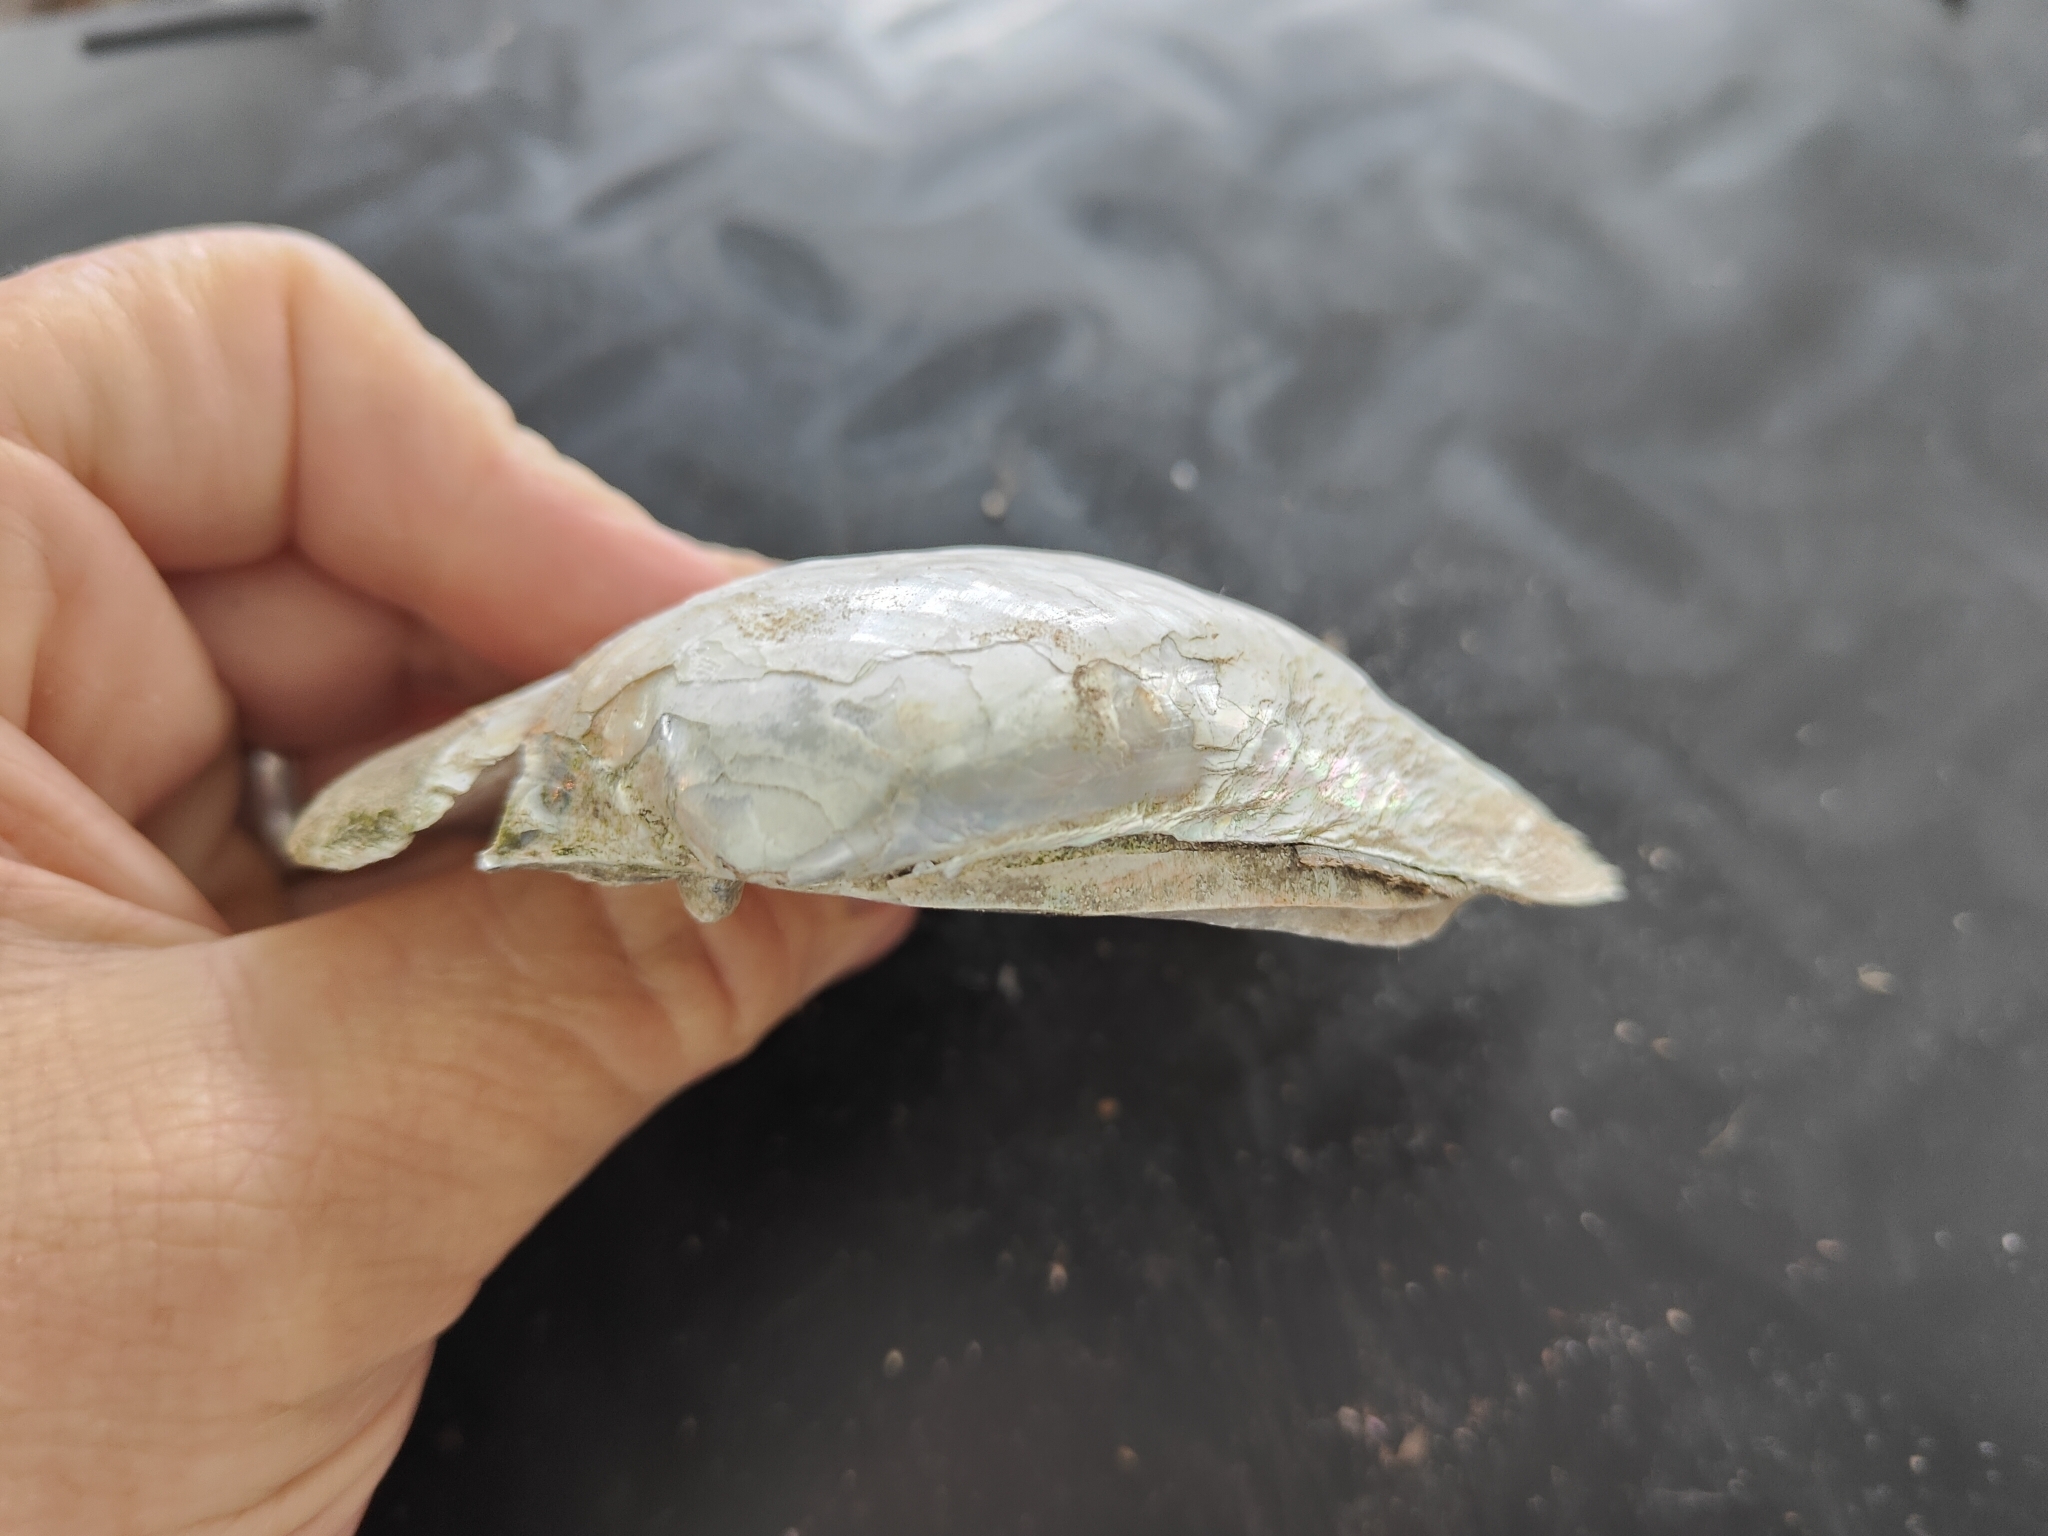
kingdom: Animalia
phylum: Mollusca
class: Bivalvia
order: Unionida
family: Unionidae
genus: Lampsilis
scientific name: Lampsilis cardium
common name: Plain pocketbook
